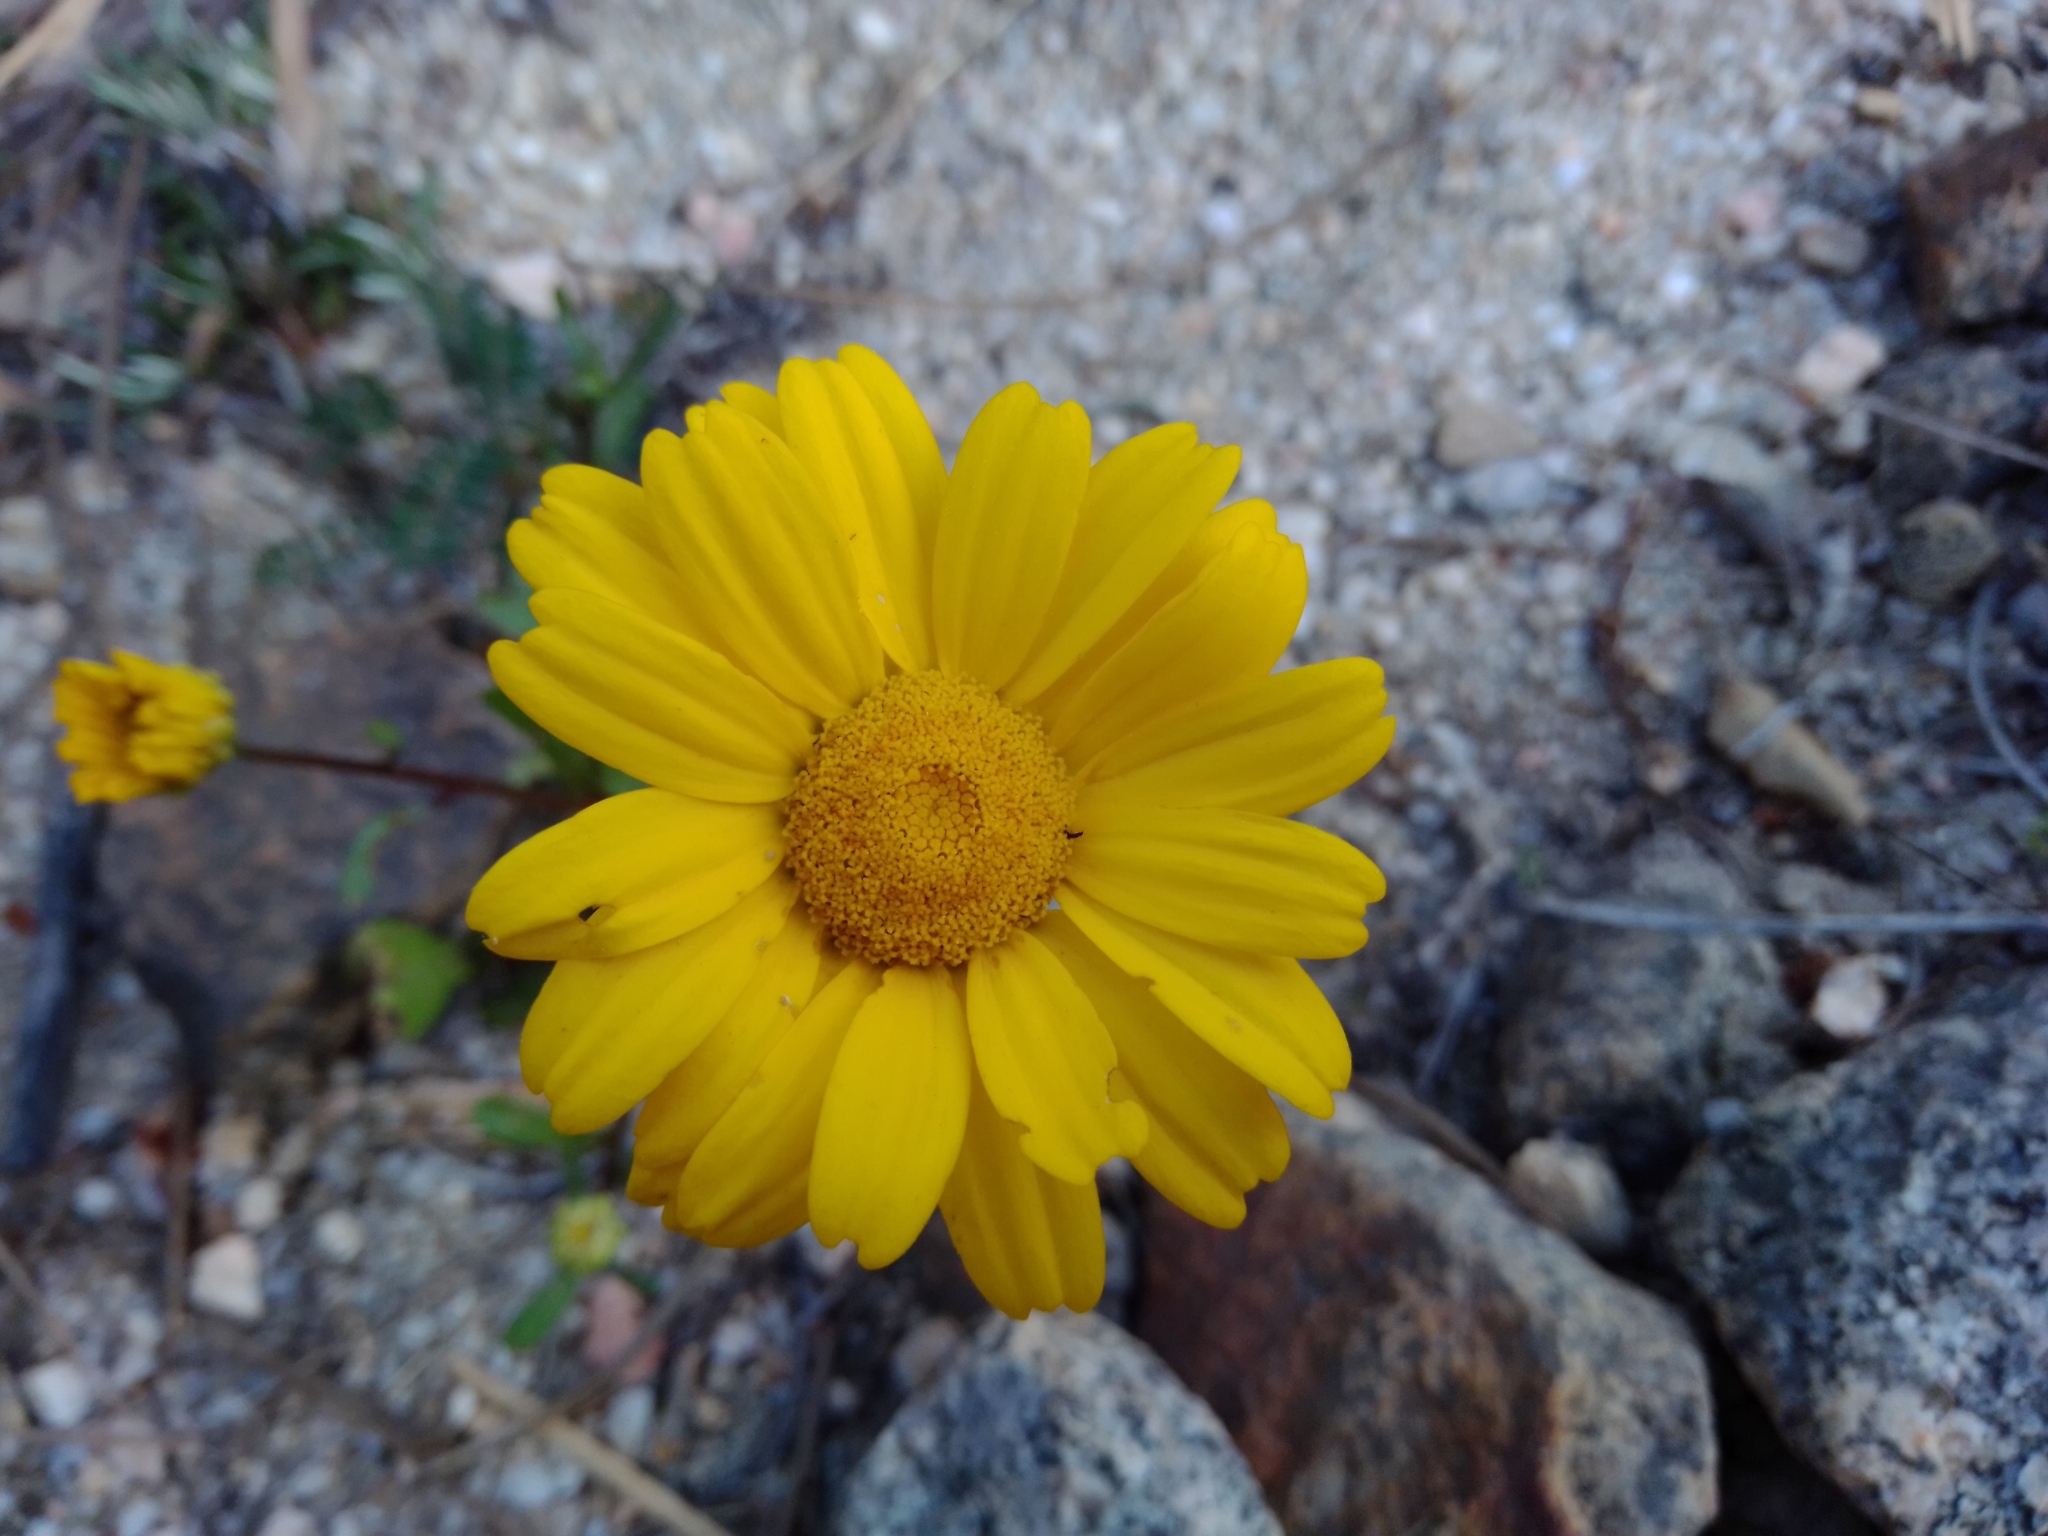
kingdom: Plantae
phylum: Tracheophyta
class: Magnoliopsida
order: Asterales
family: Asteraceae
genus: Coleostephus
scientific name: Coleostephus myconis
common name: Mediterranean marigold
